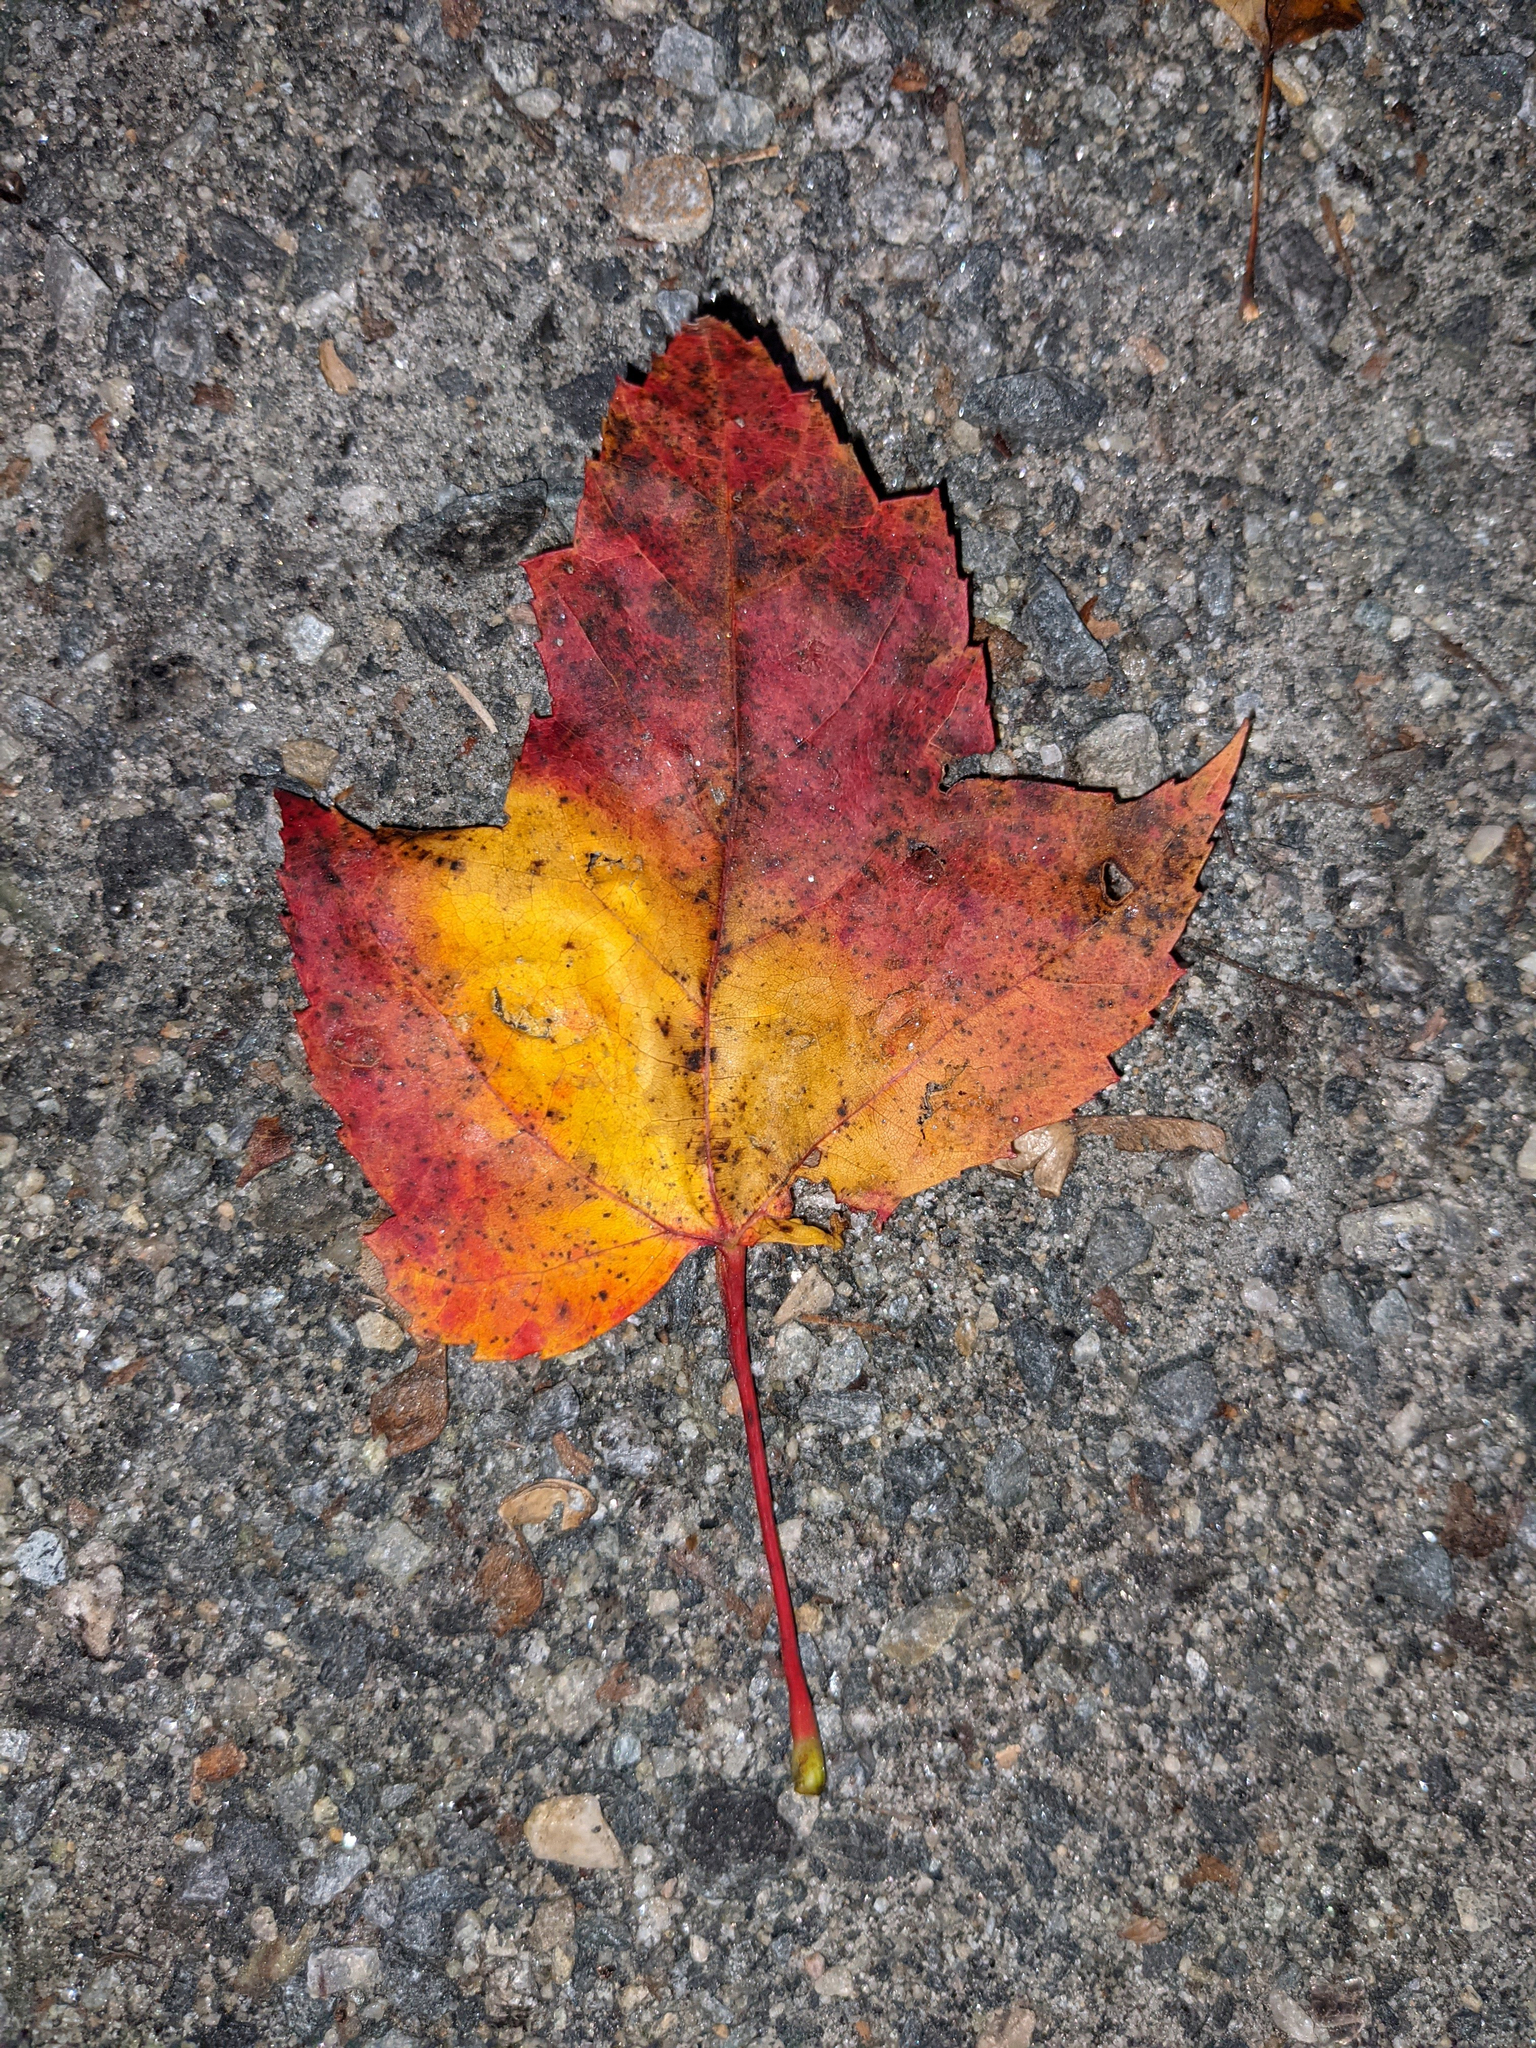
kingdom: Plantae
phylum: Tracheophyta
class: Magnoliopsida
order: Sapindales
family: Sapindaceae
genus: Acer
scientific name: Acer rubrum
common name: Red maple
